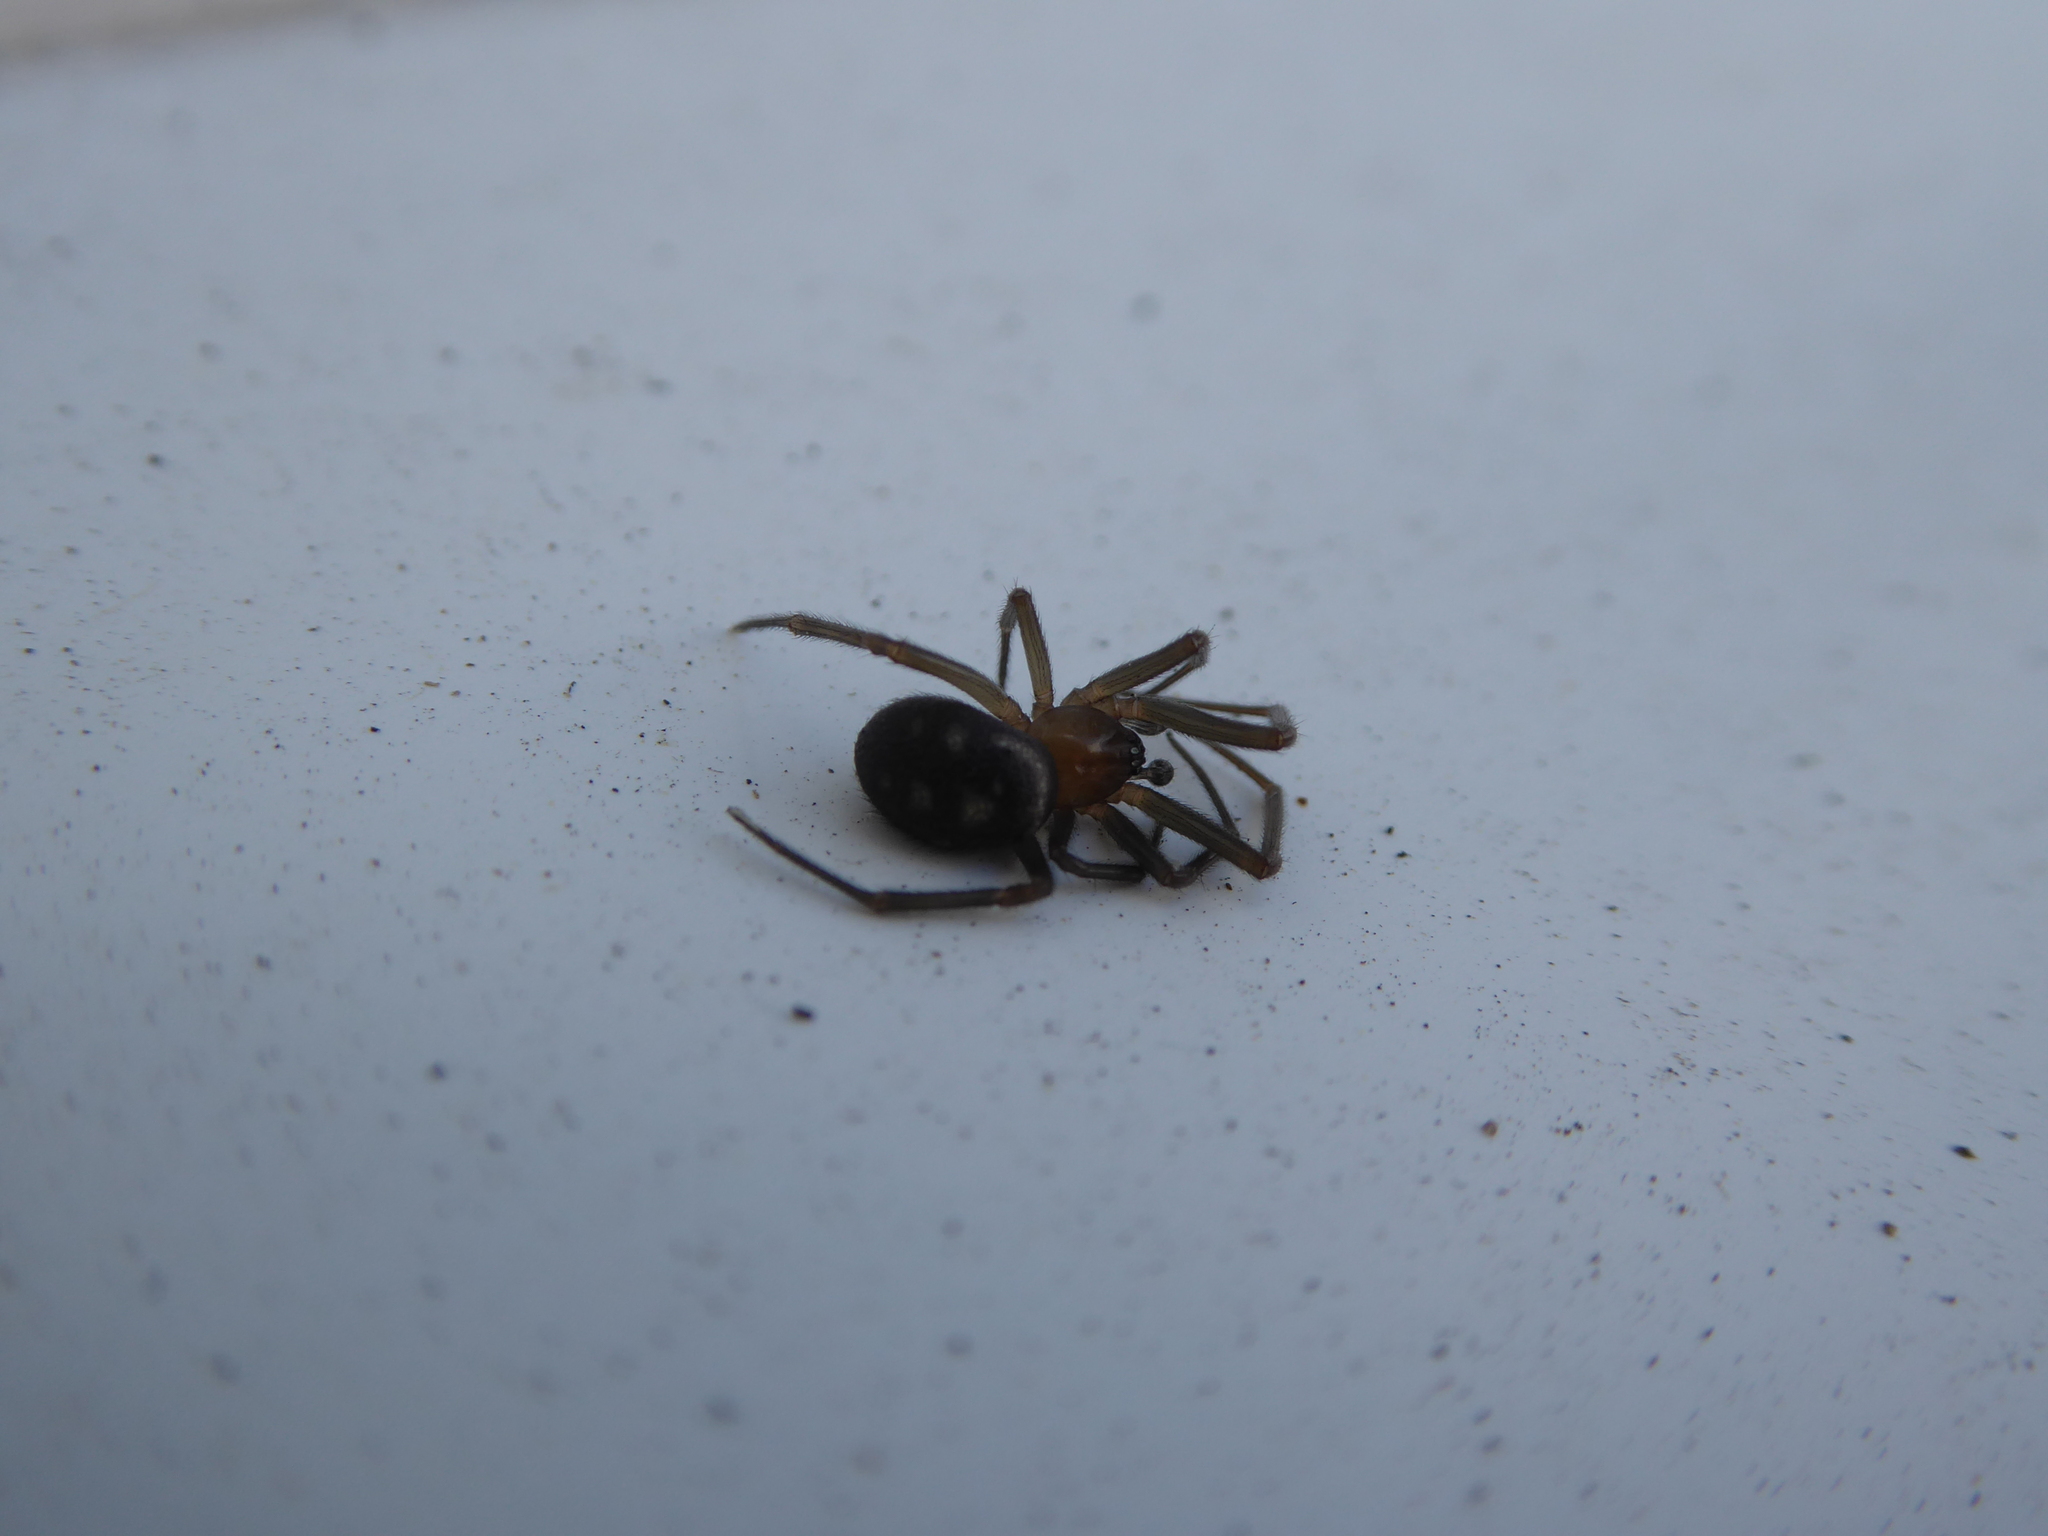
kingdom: Animalia
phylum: Arthropoda
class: Arachnida
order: Araneae
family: Theridiidae
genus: Steatoda
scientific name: Steatoda grossa
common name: False black widow
